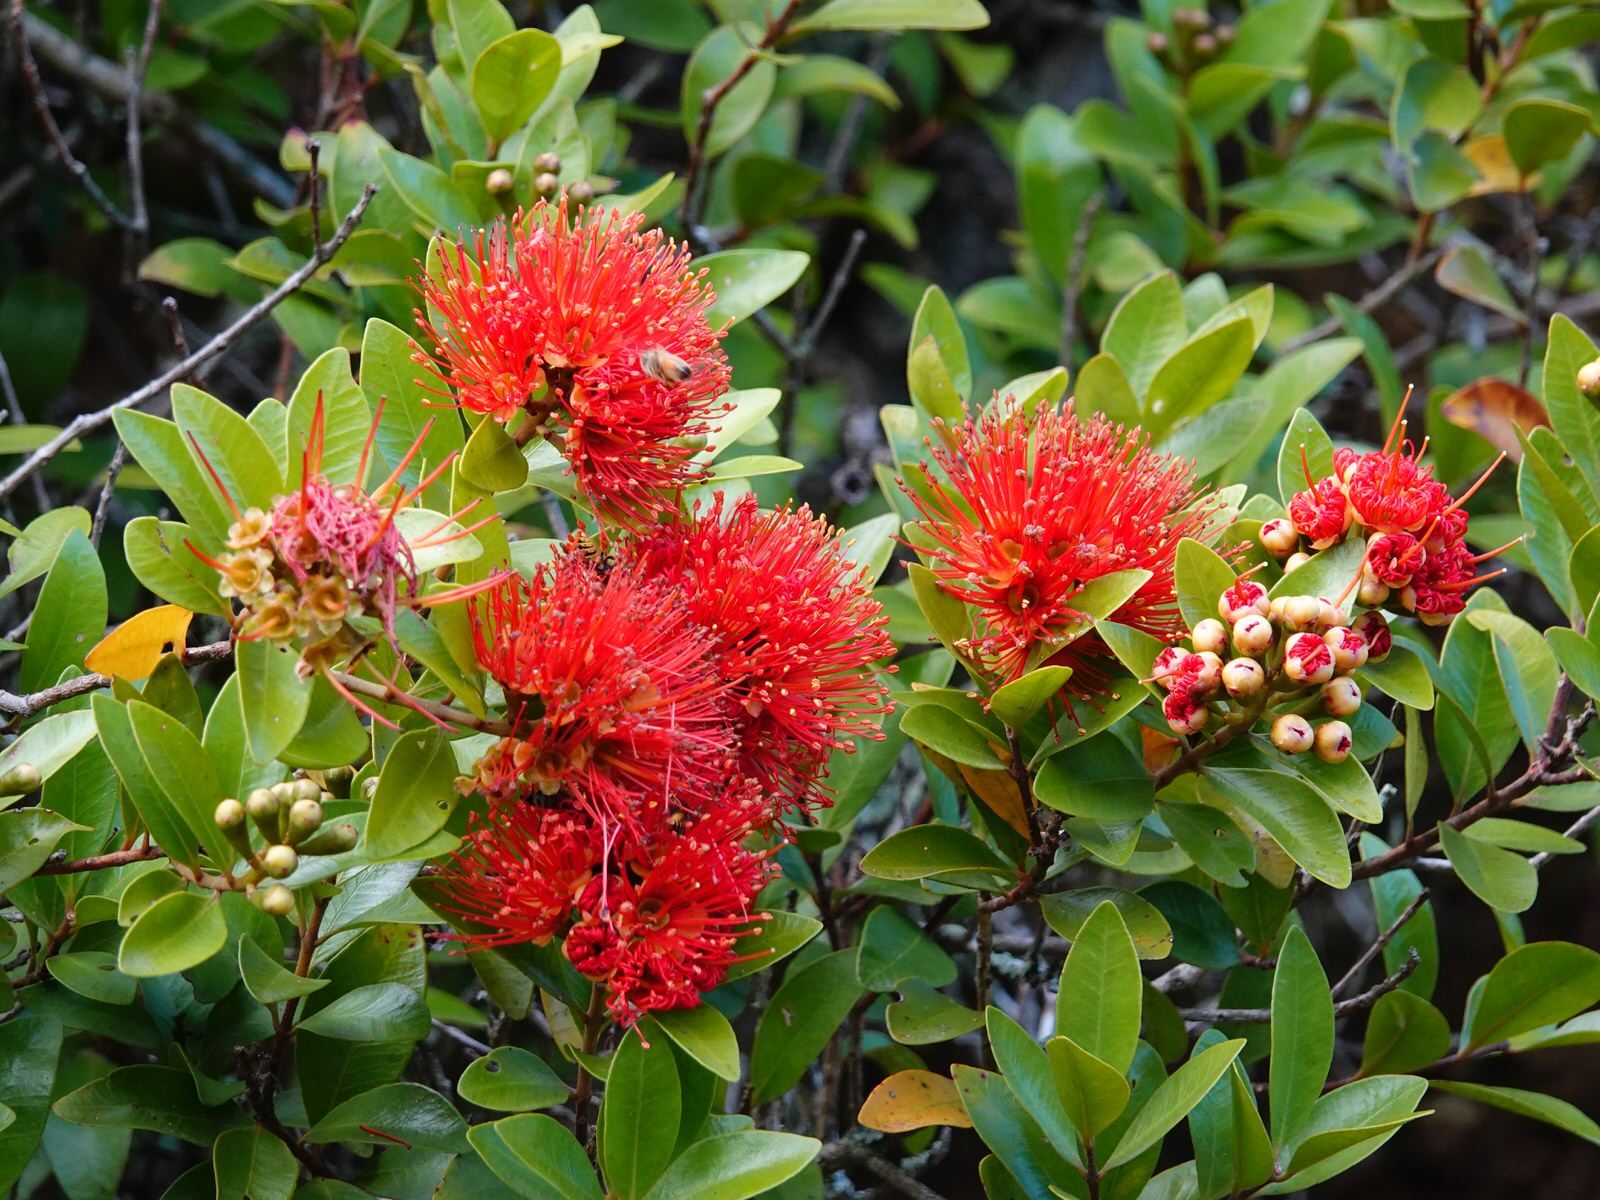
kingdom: Plantae
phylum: Tracheophyta
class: Magnoliopsida
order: Myrtales
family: Myrtaceae
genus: Metrosideros
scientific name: Metrosideros fulgens
